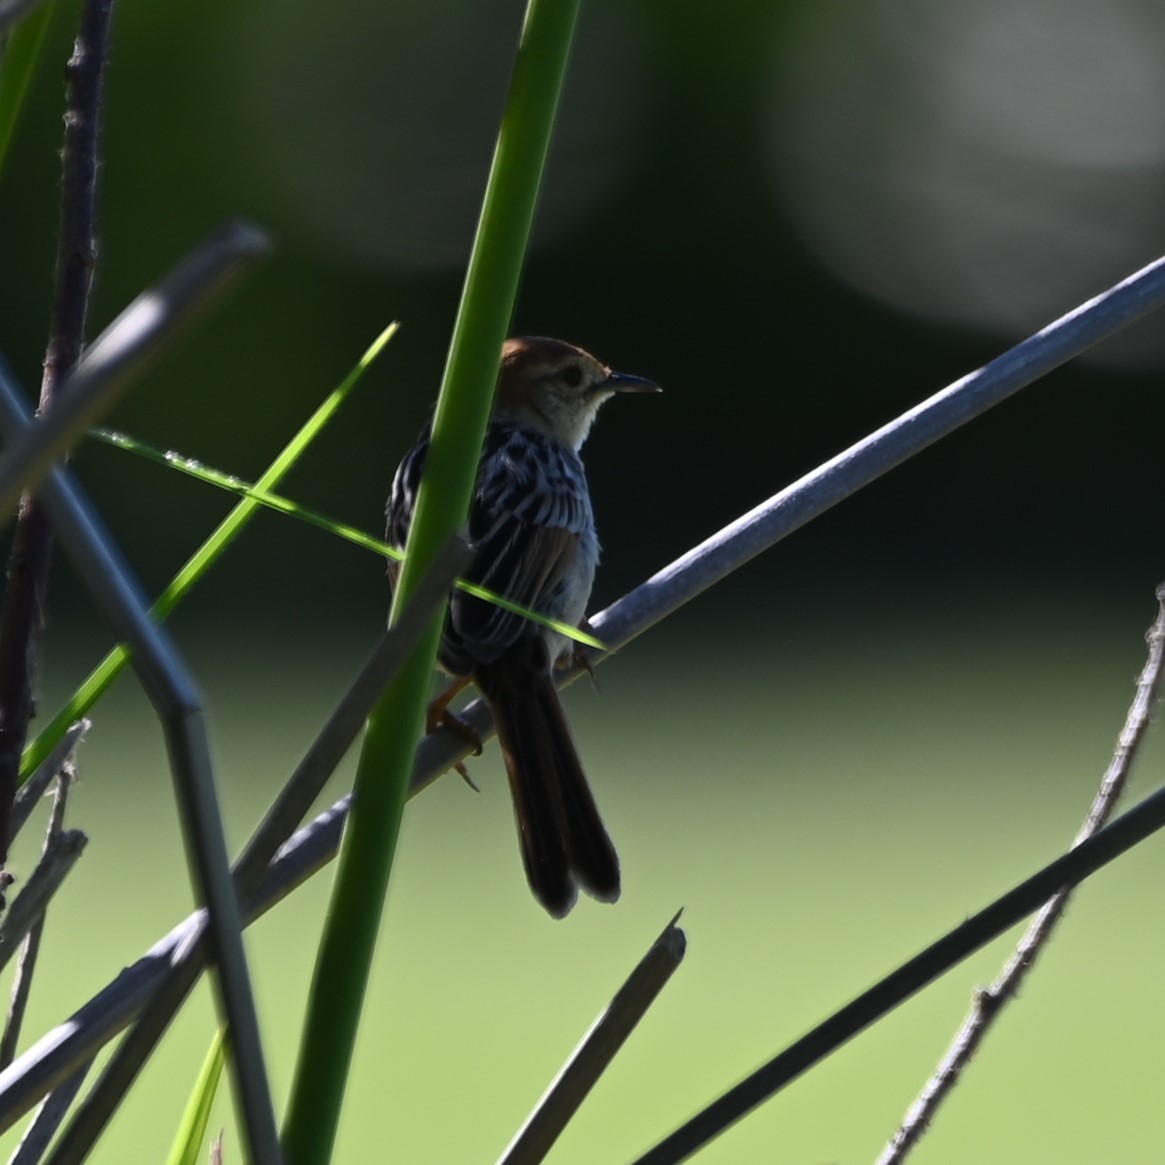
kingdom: Animalia
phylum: Chordata
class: Aves
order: Passeriformes
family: Cisticolidae
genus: Cisticola
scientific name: Cisticola tinniens
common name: Levaillant's cisticola
